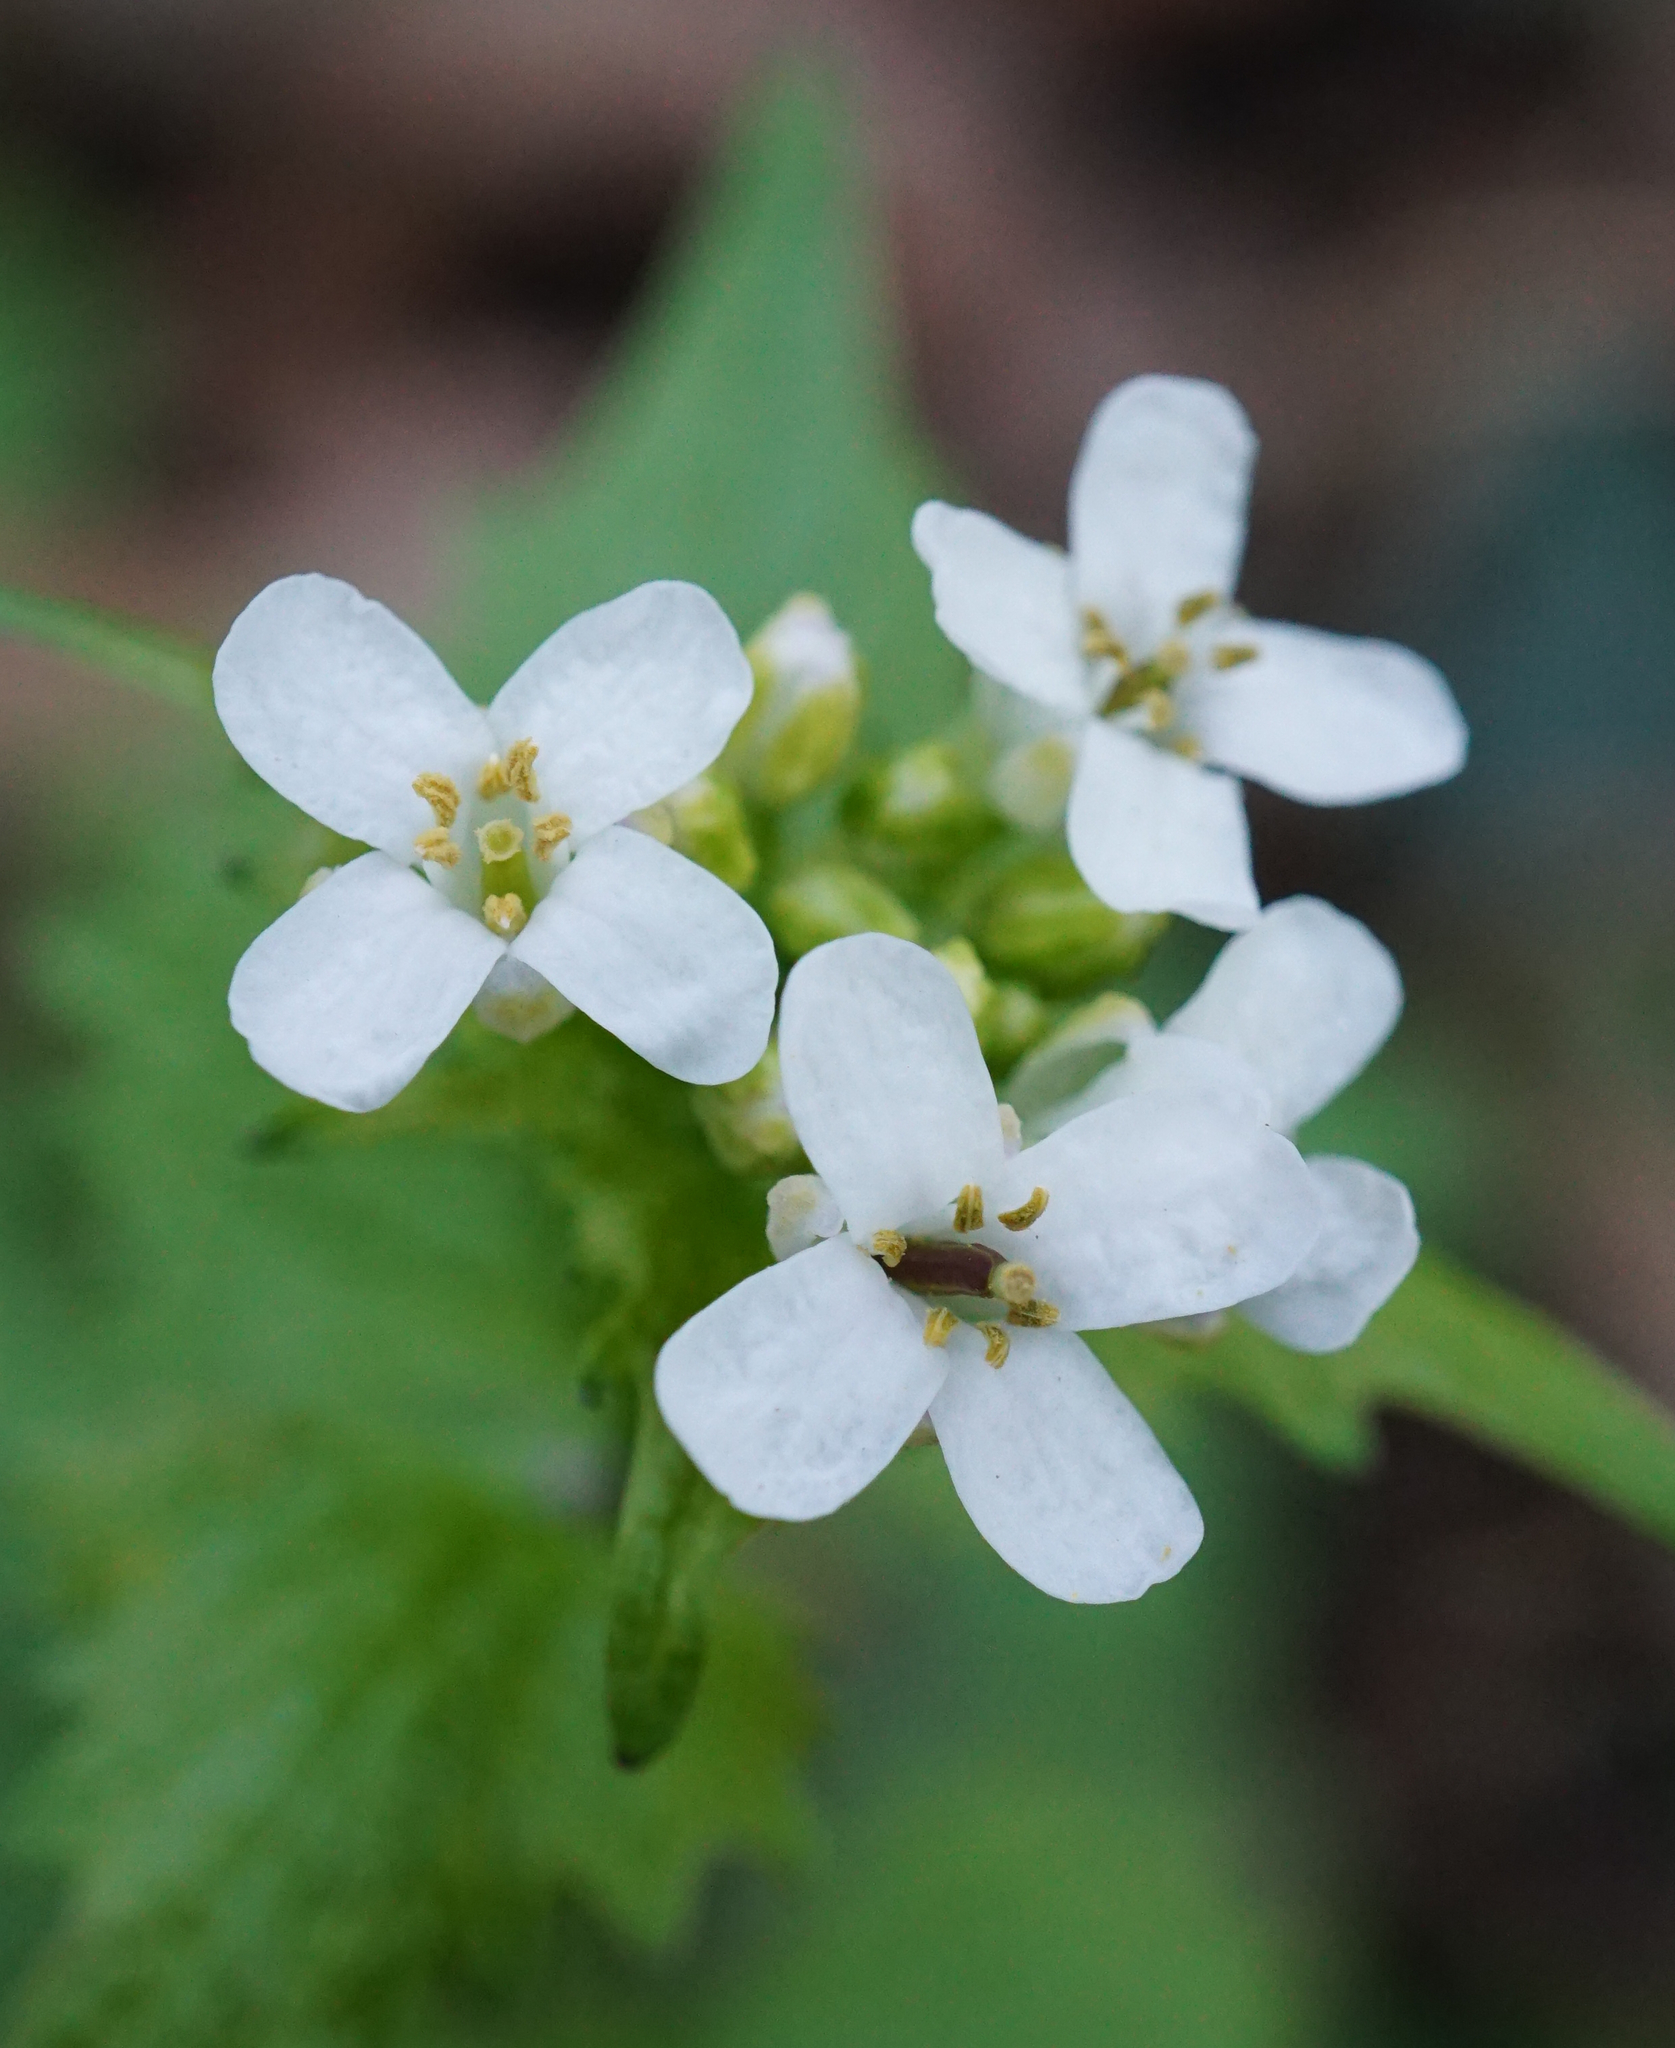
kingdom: Plantae
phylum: Tracheophyta
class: Magnoliopsida
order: Brassicales
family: Brassicaceae
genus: Alliaria
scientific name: Alliaria petiolata
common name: Garlic mustard
